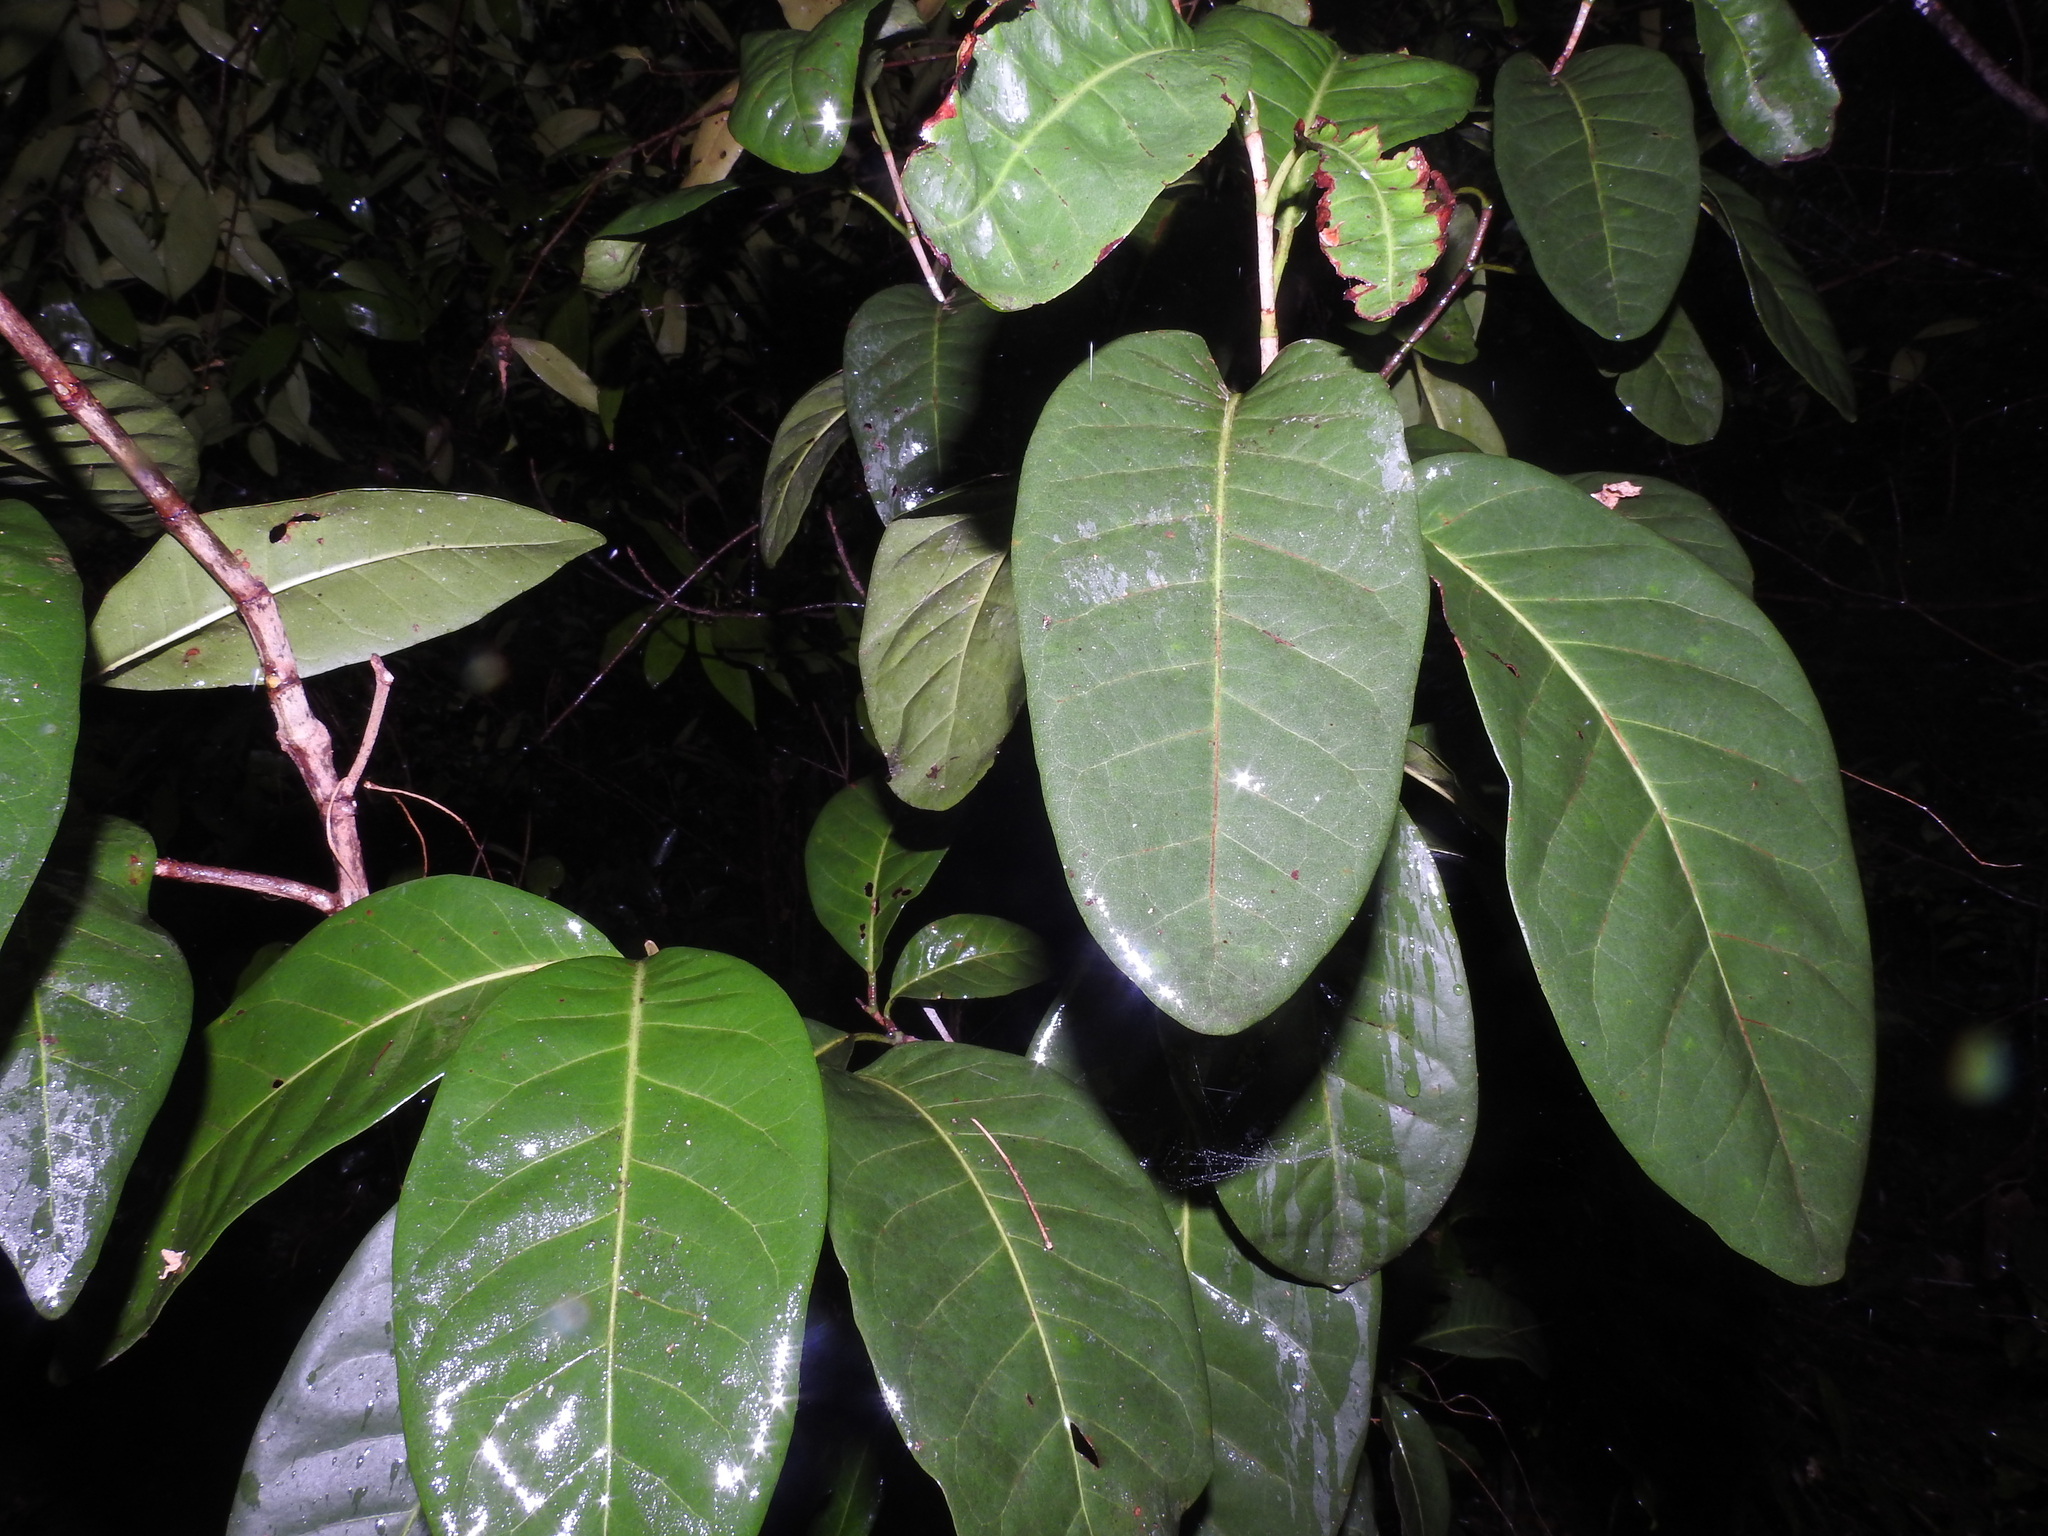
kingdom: Plantae
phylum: Tracheophyta
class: Magnoliopsida
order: Caryophyllales
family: Polygonaceae
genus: Coccoloba
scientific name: Coccoloba diversifolia
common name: Pigeon-plum
